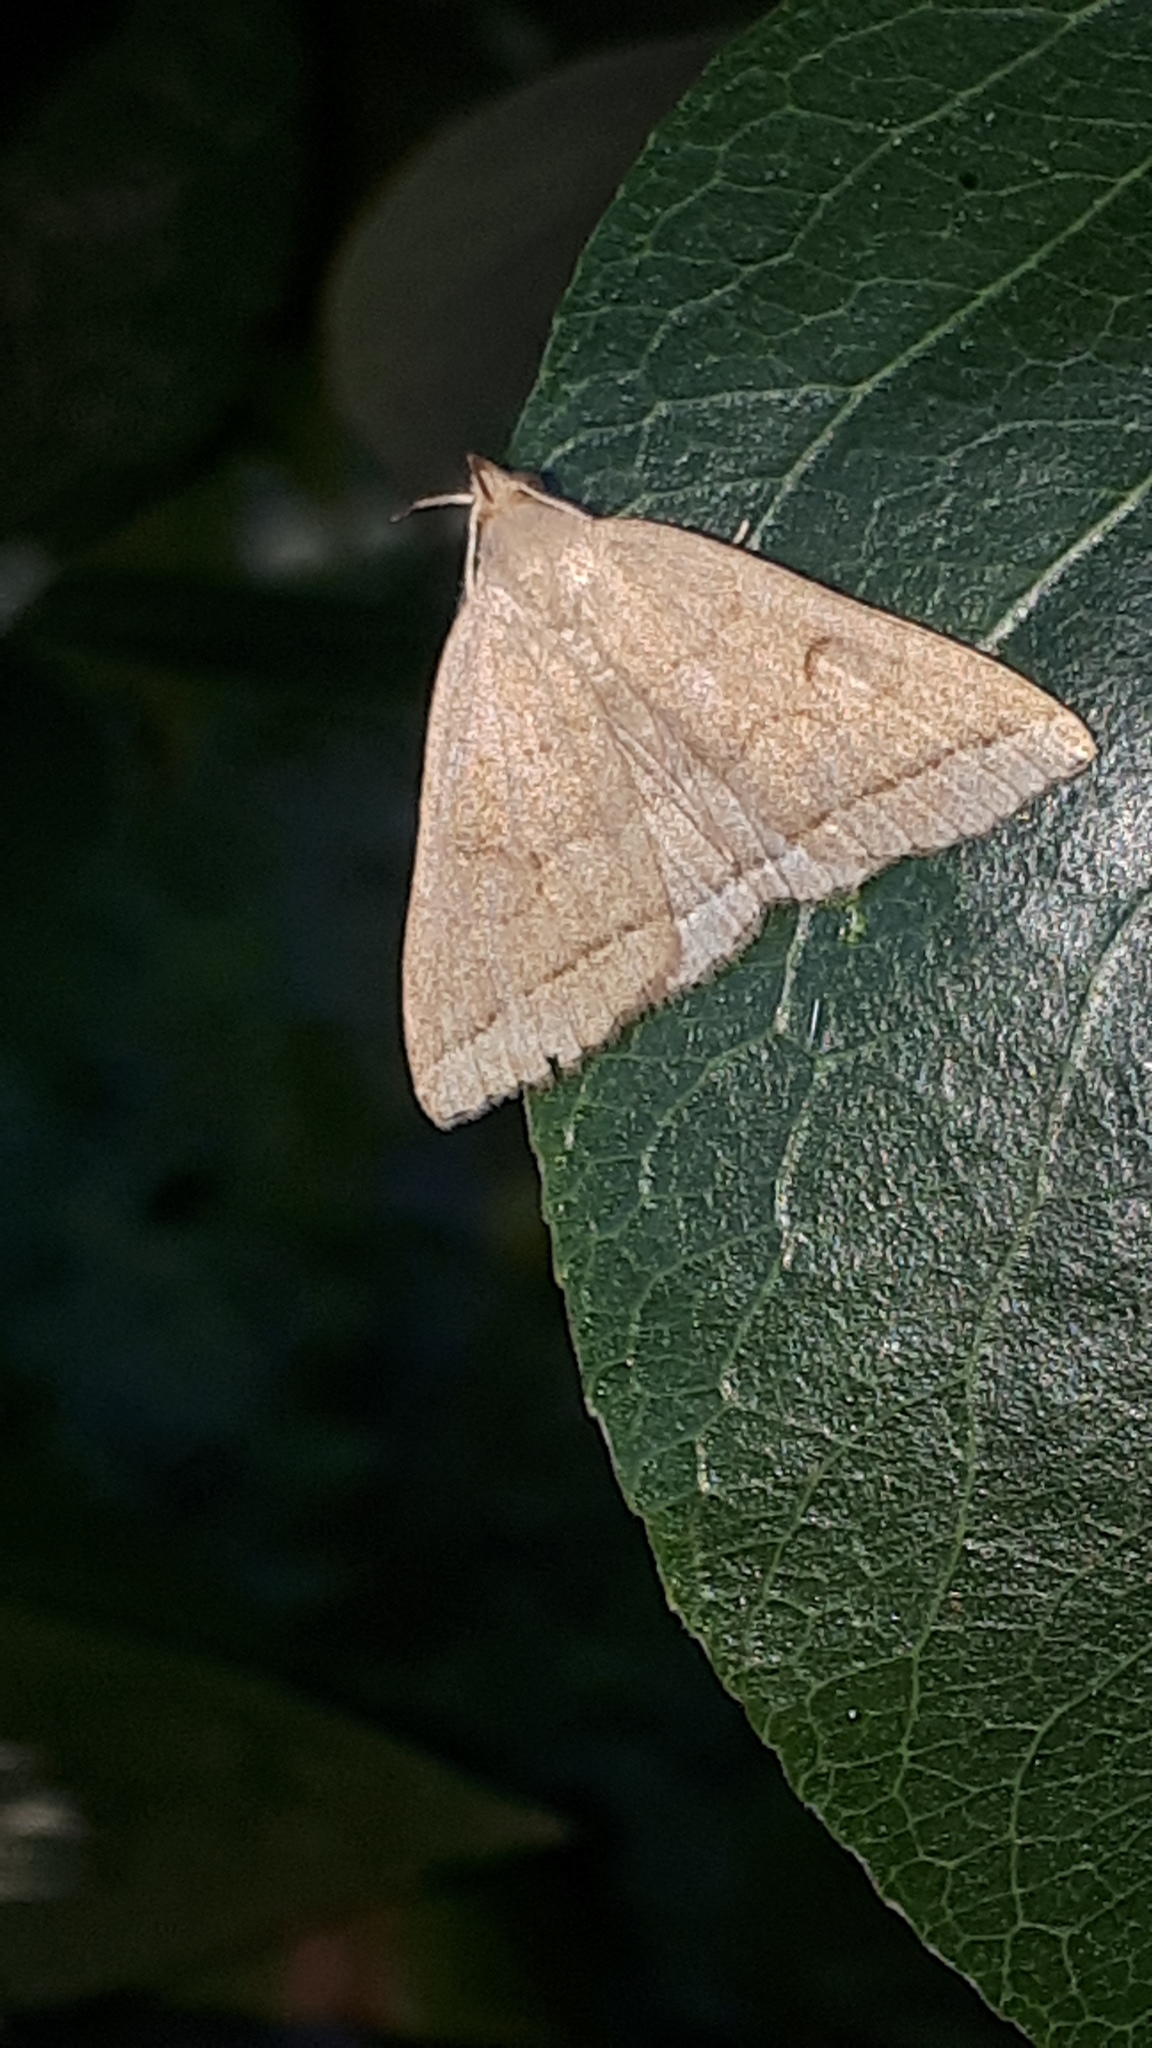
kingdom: Animalia
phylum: Arthropoda
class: Insecta
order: Lepidoptera
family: Erebidae
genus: Herminia
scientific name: Herminia tarsipennalis
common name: Fan-foot
